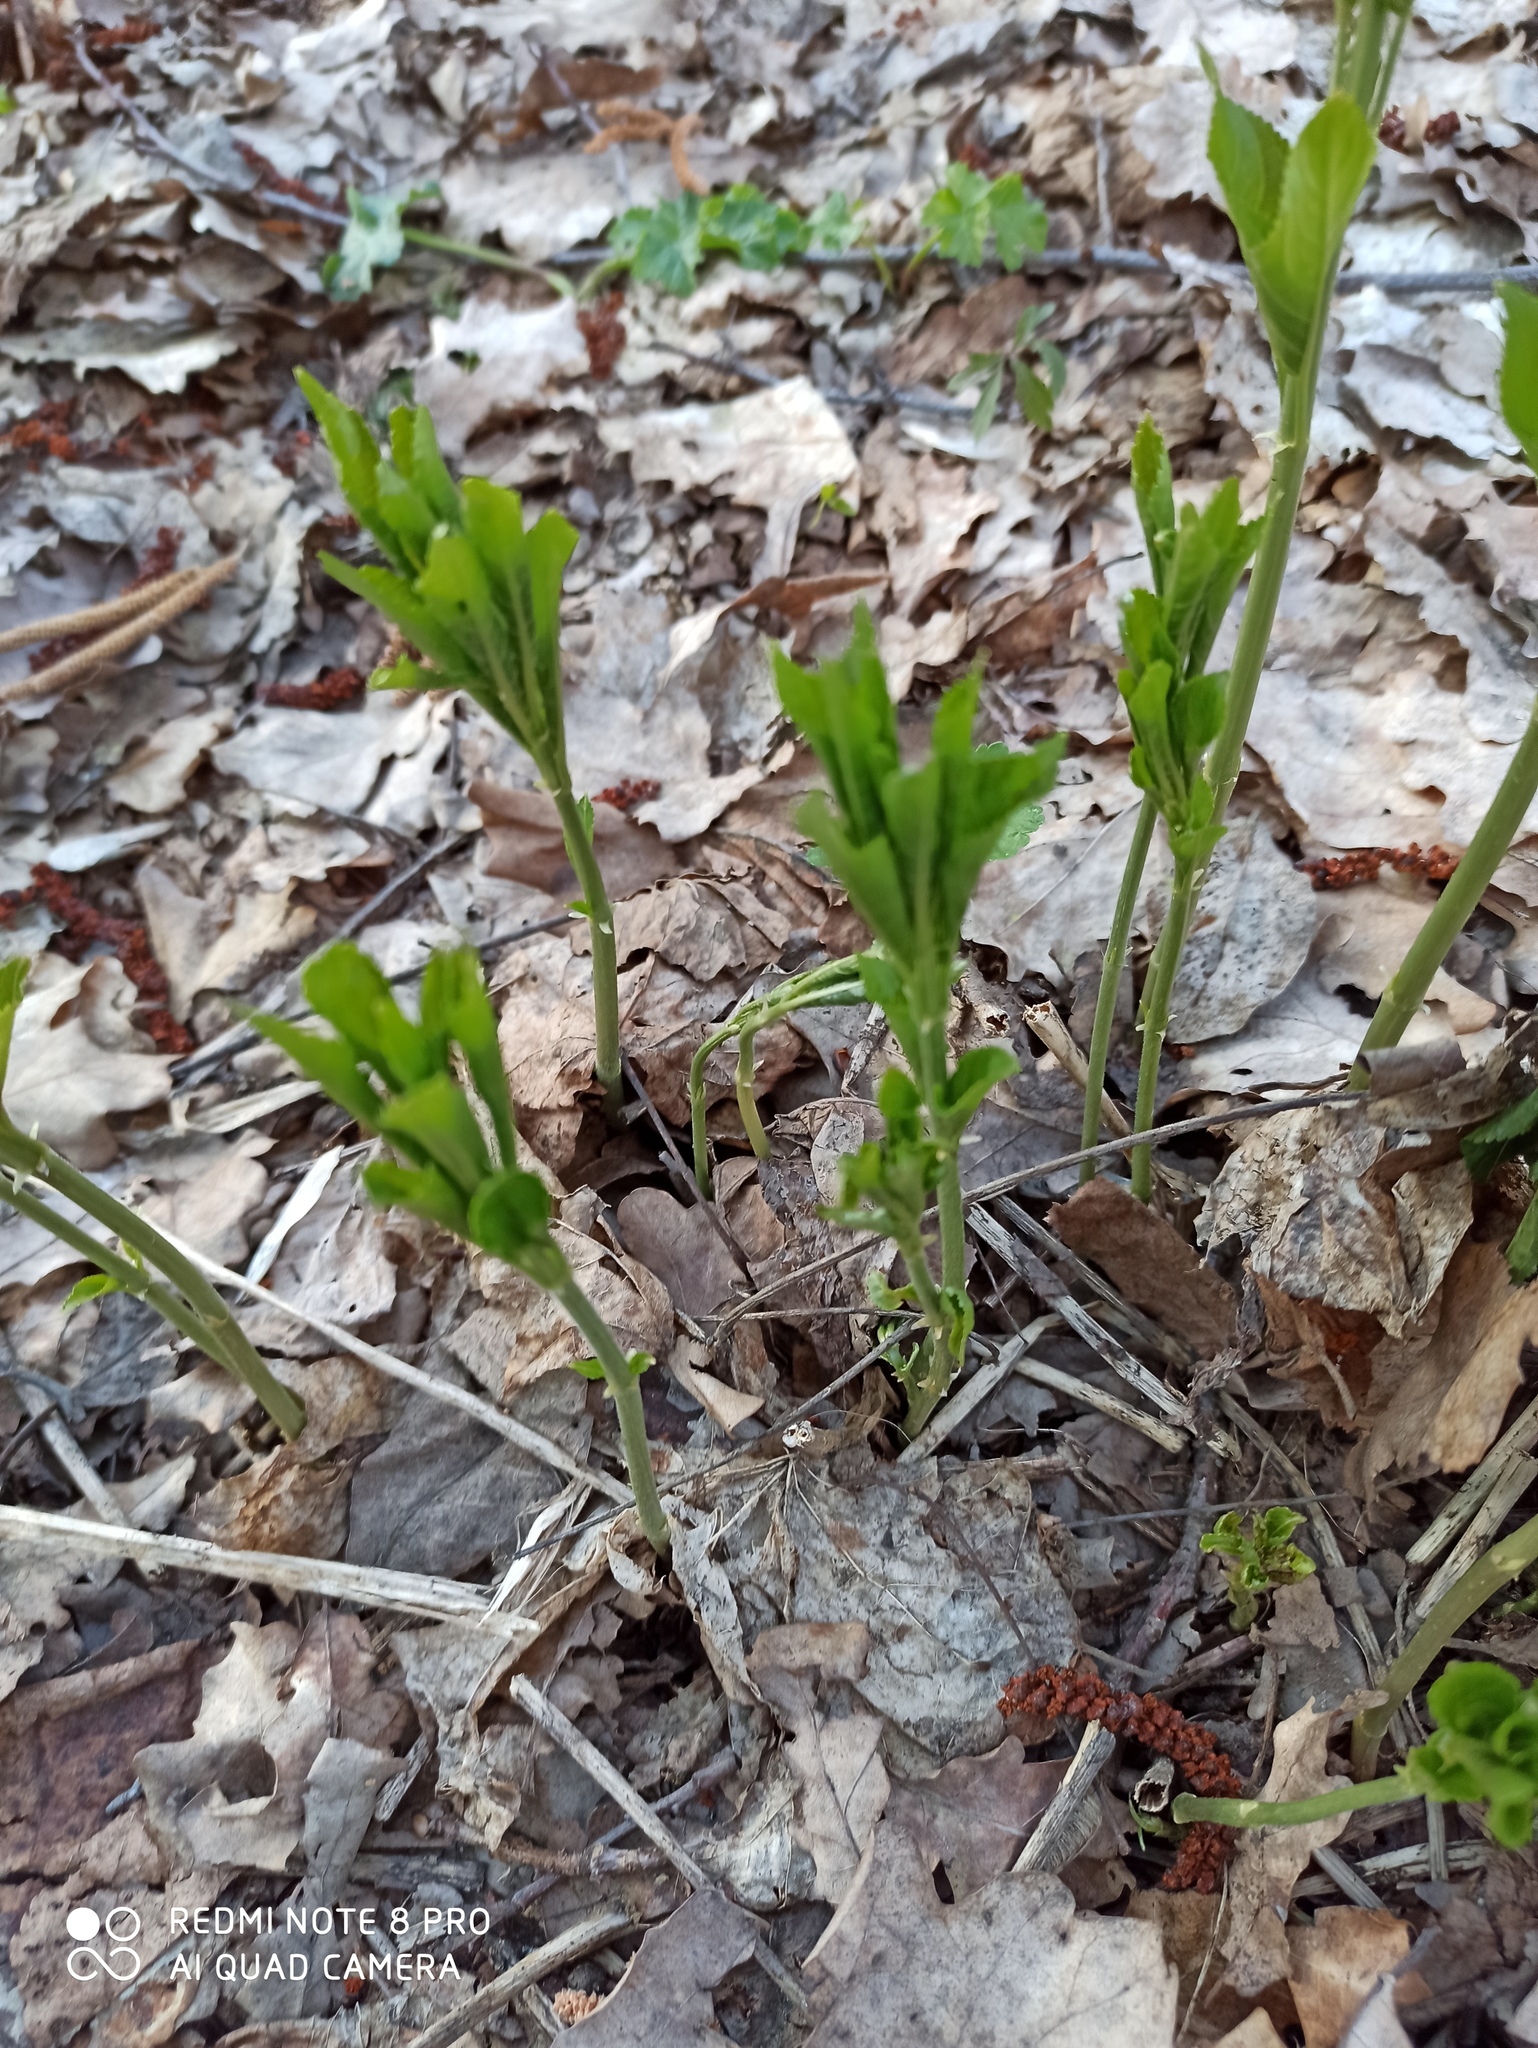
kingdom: Plantae
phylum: Tracheophyta
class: Magnoliopsida
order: Malpighiales
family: Euphorbiaceae
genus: Mercurialis
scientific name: Mercurialis perennis
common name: Dog mercury
